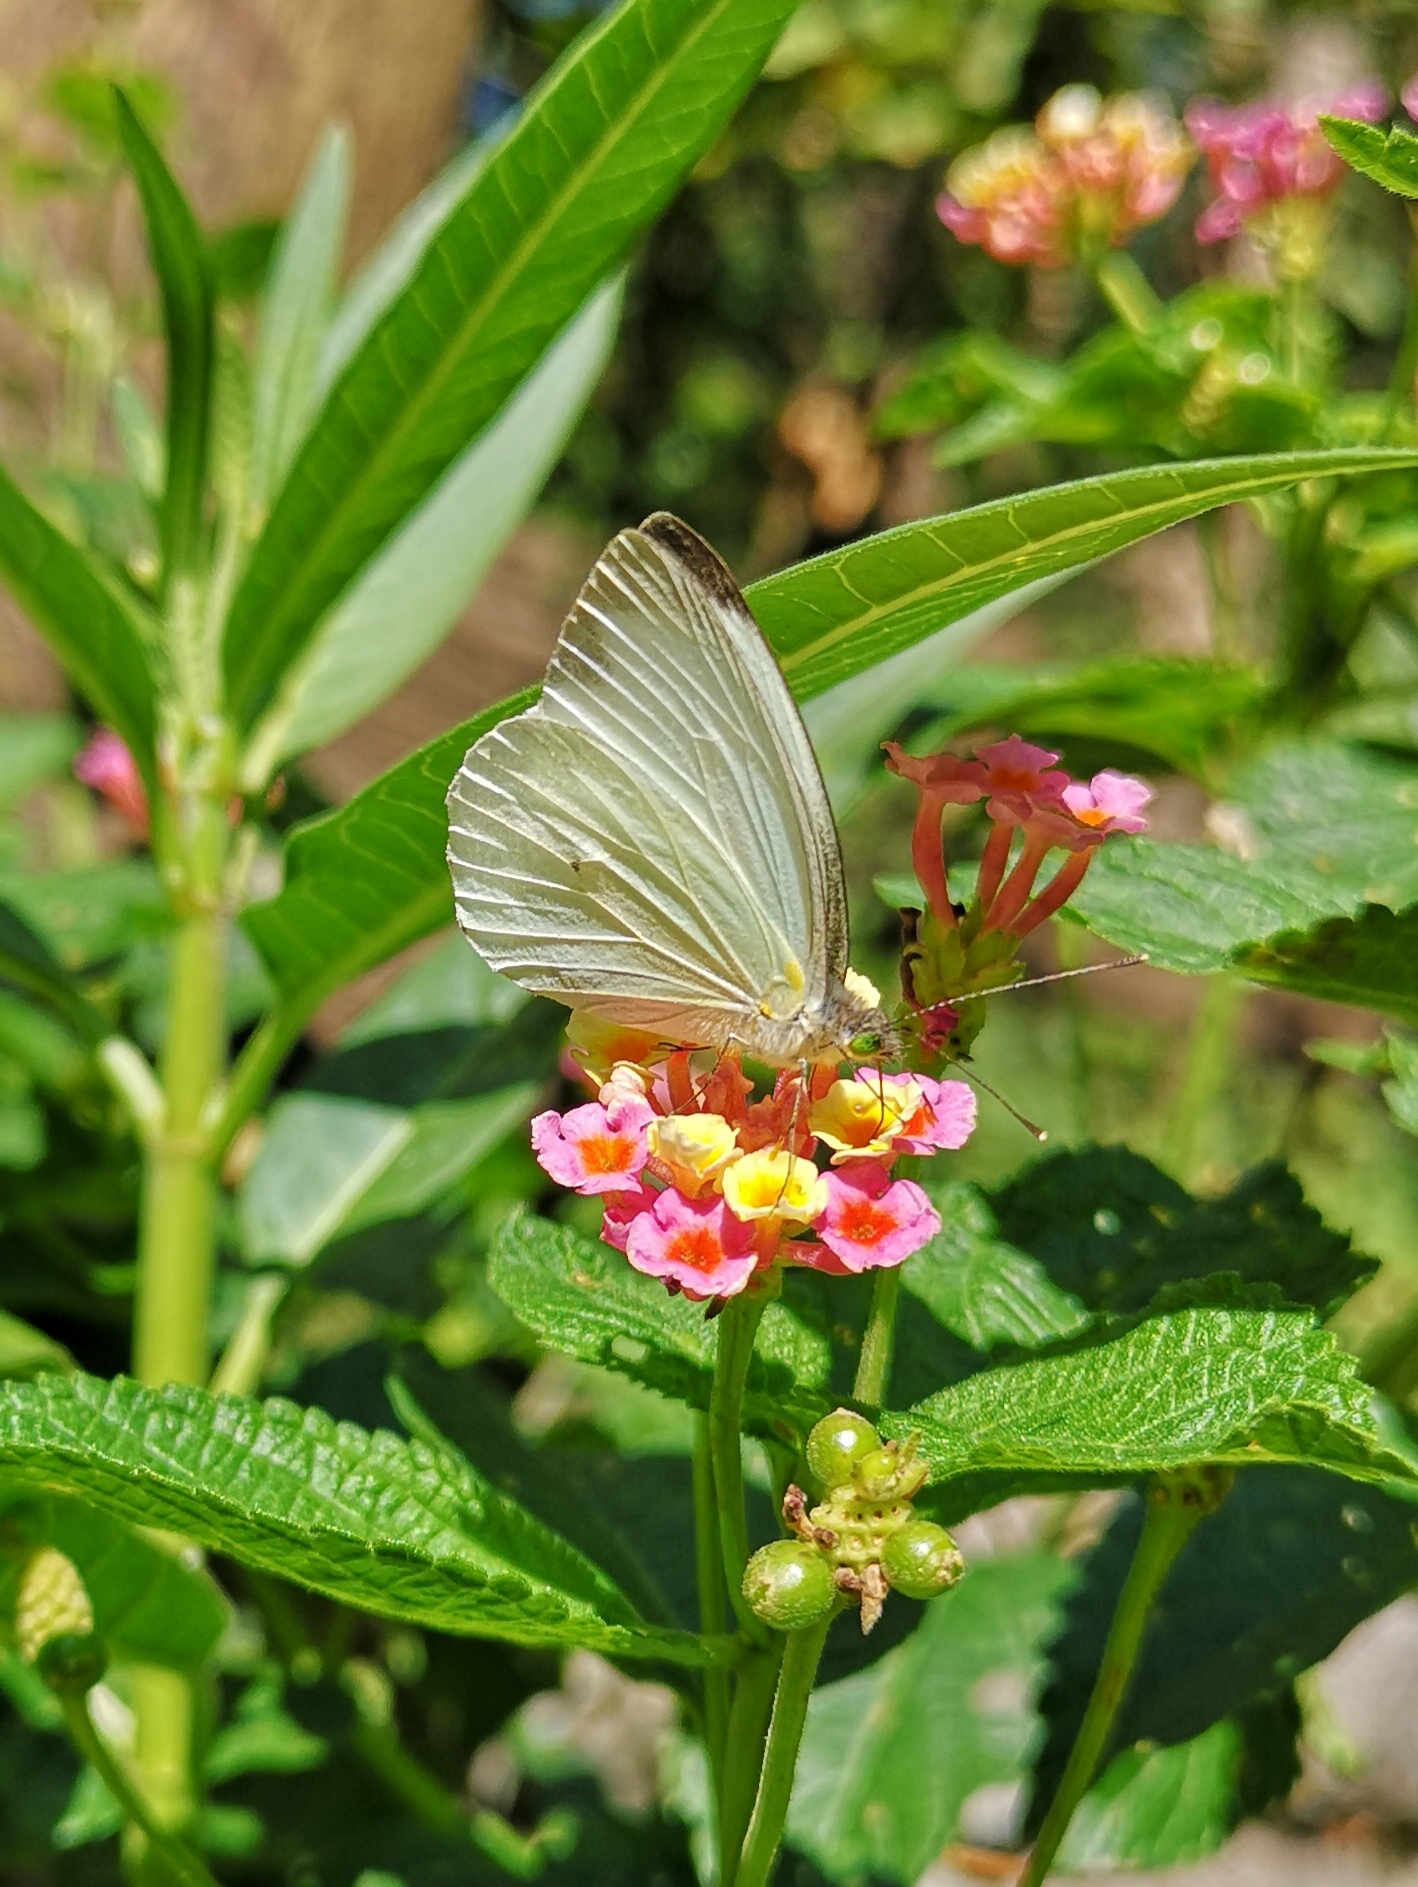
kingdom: Animalia
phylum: Arthropoda
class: Insecta
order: Lepidoptera
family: Pieridae
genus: Leptophobia
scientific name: Leptophobia aripa
